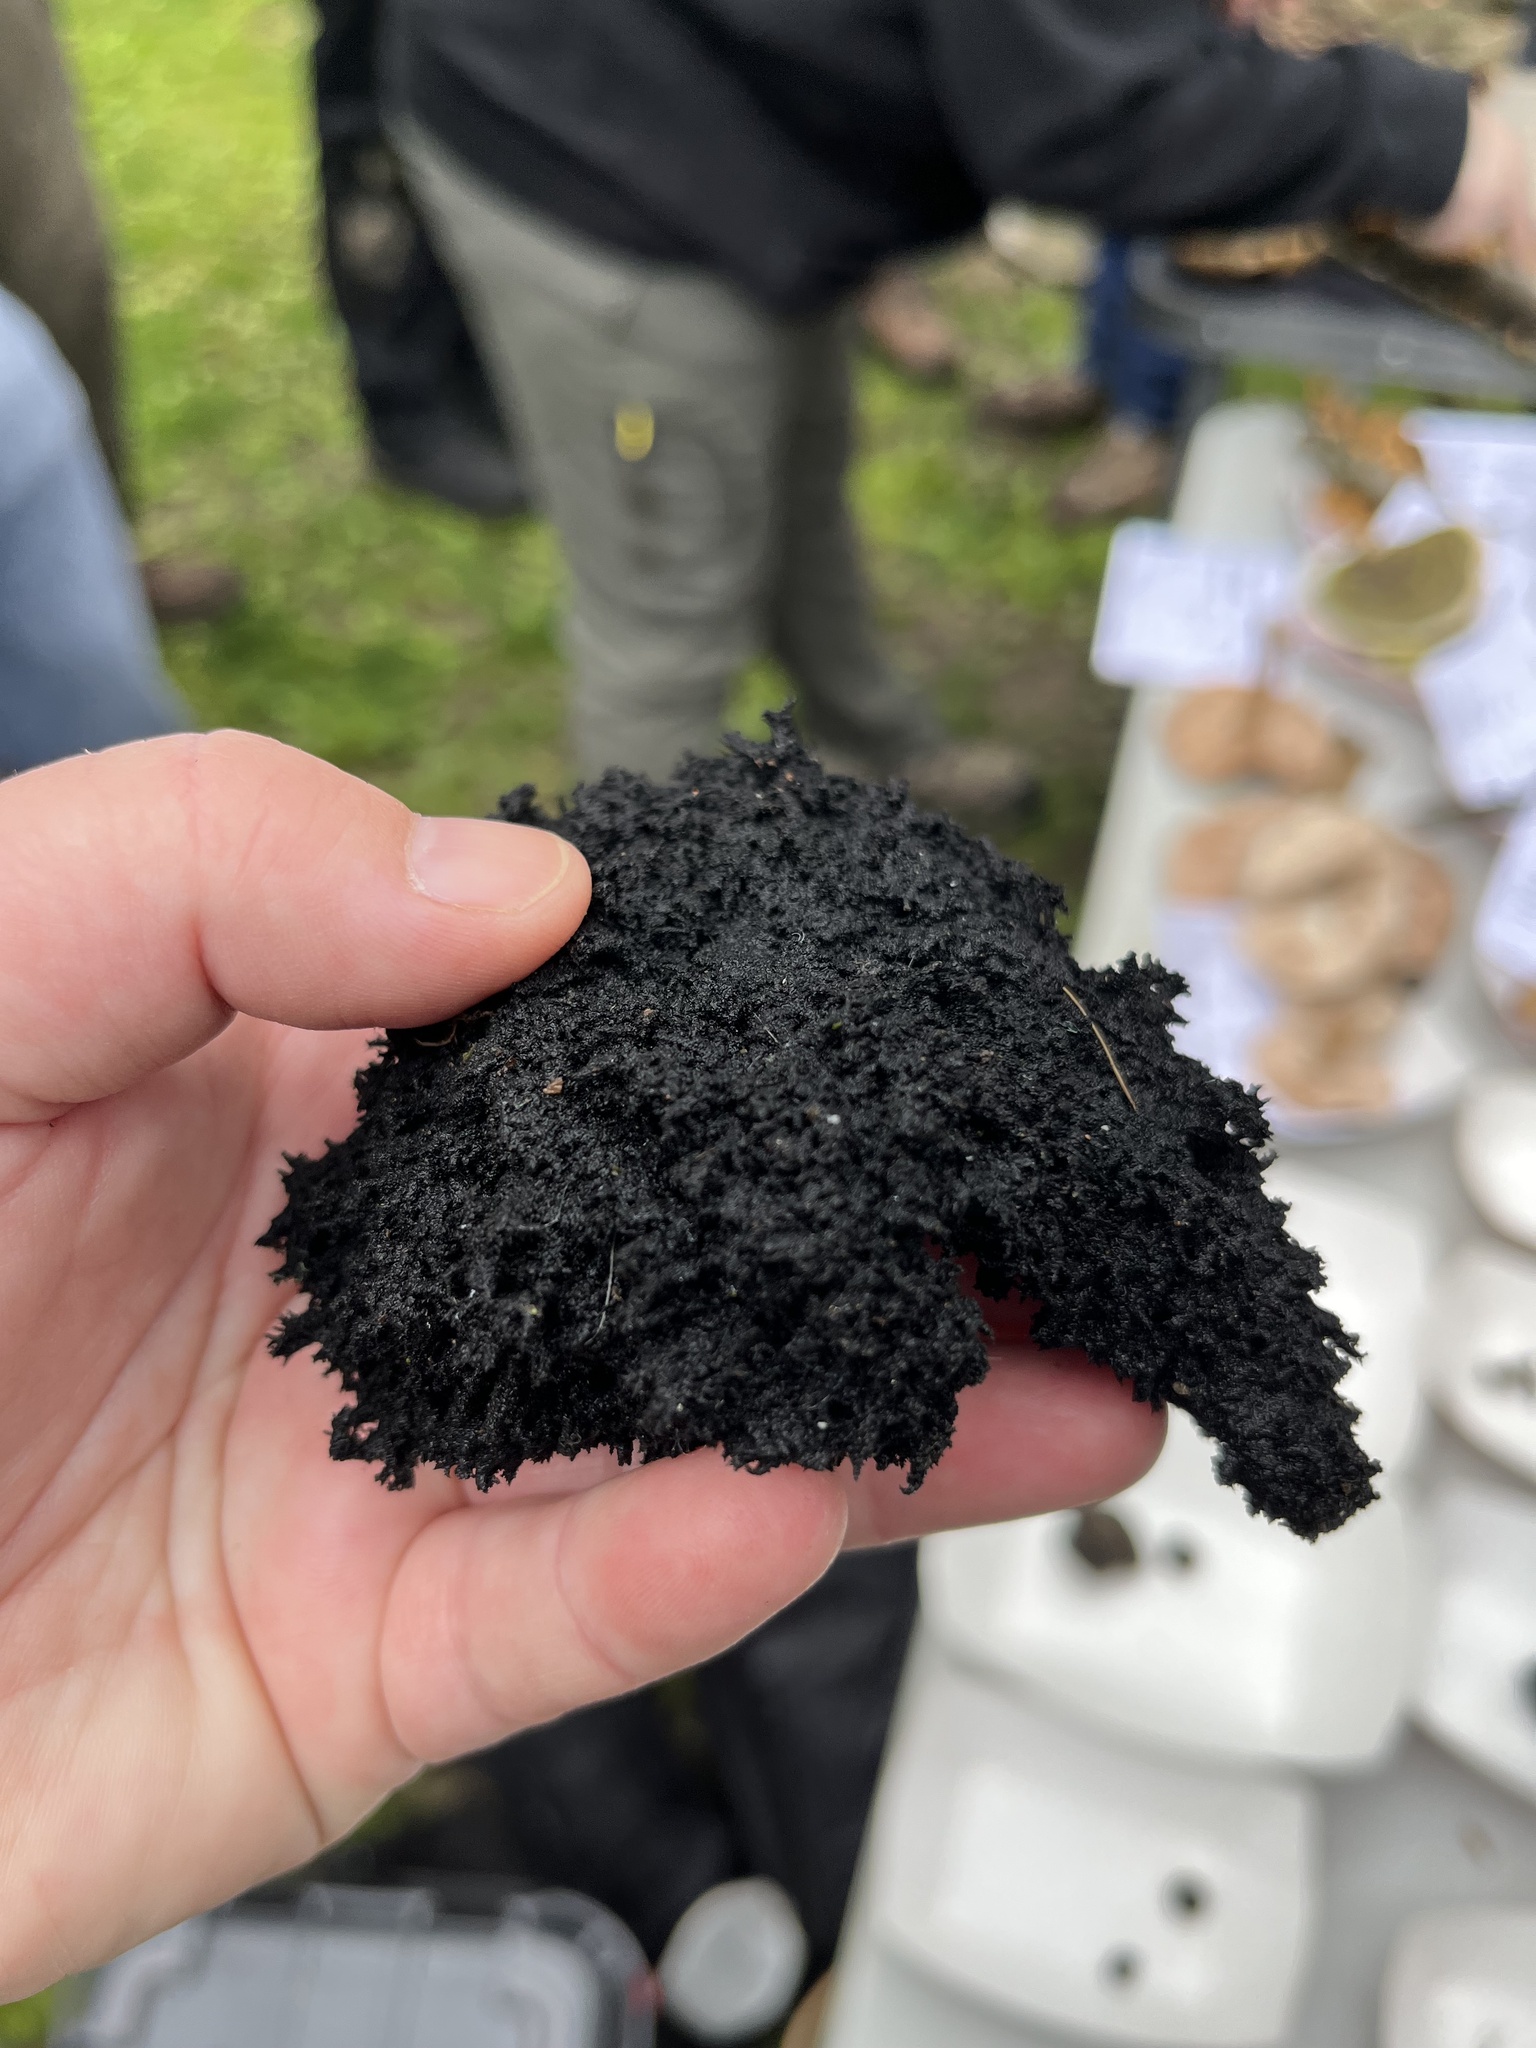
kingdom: Fungi
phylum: Ascomycota
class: Dothideomycetes
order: Capnodiales
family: Capnodiaceae
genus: Scorias
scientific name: Scorias spongiosa
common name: Black sooty mold
